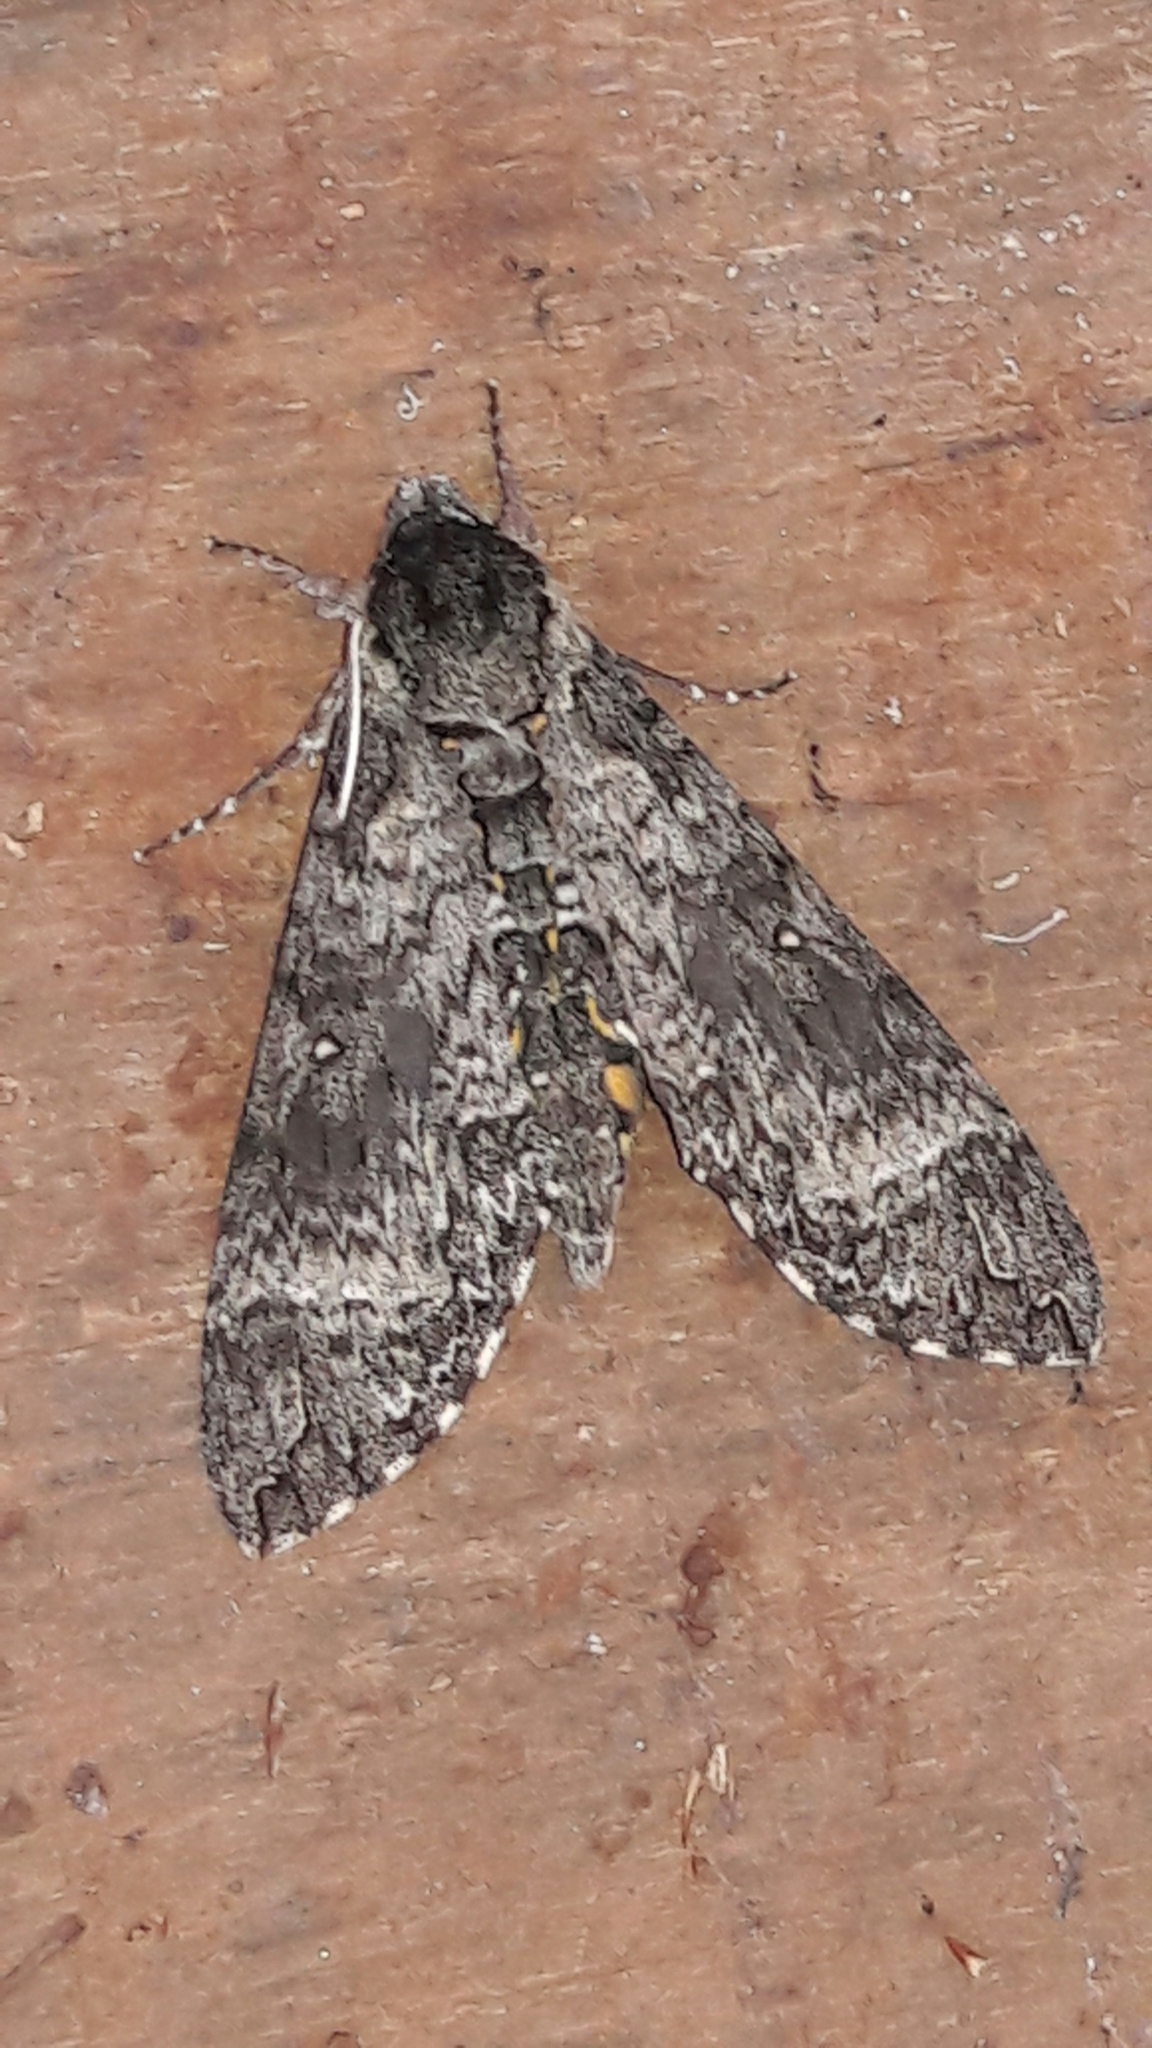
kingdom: Animalia
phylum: Arthropoda
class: Insecta
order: Lepidoptera
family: Sphingidae
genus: Manduca
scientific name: Manduca diffissa
